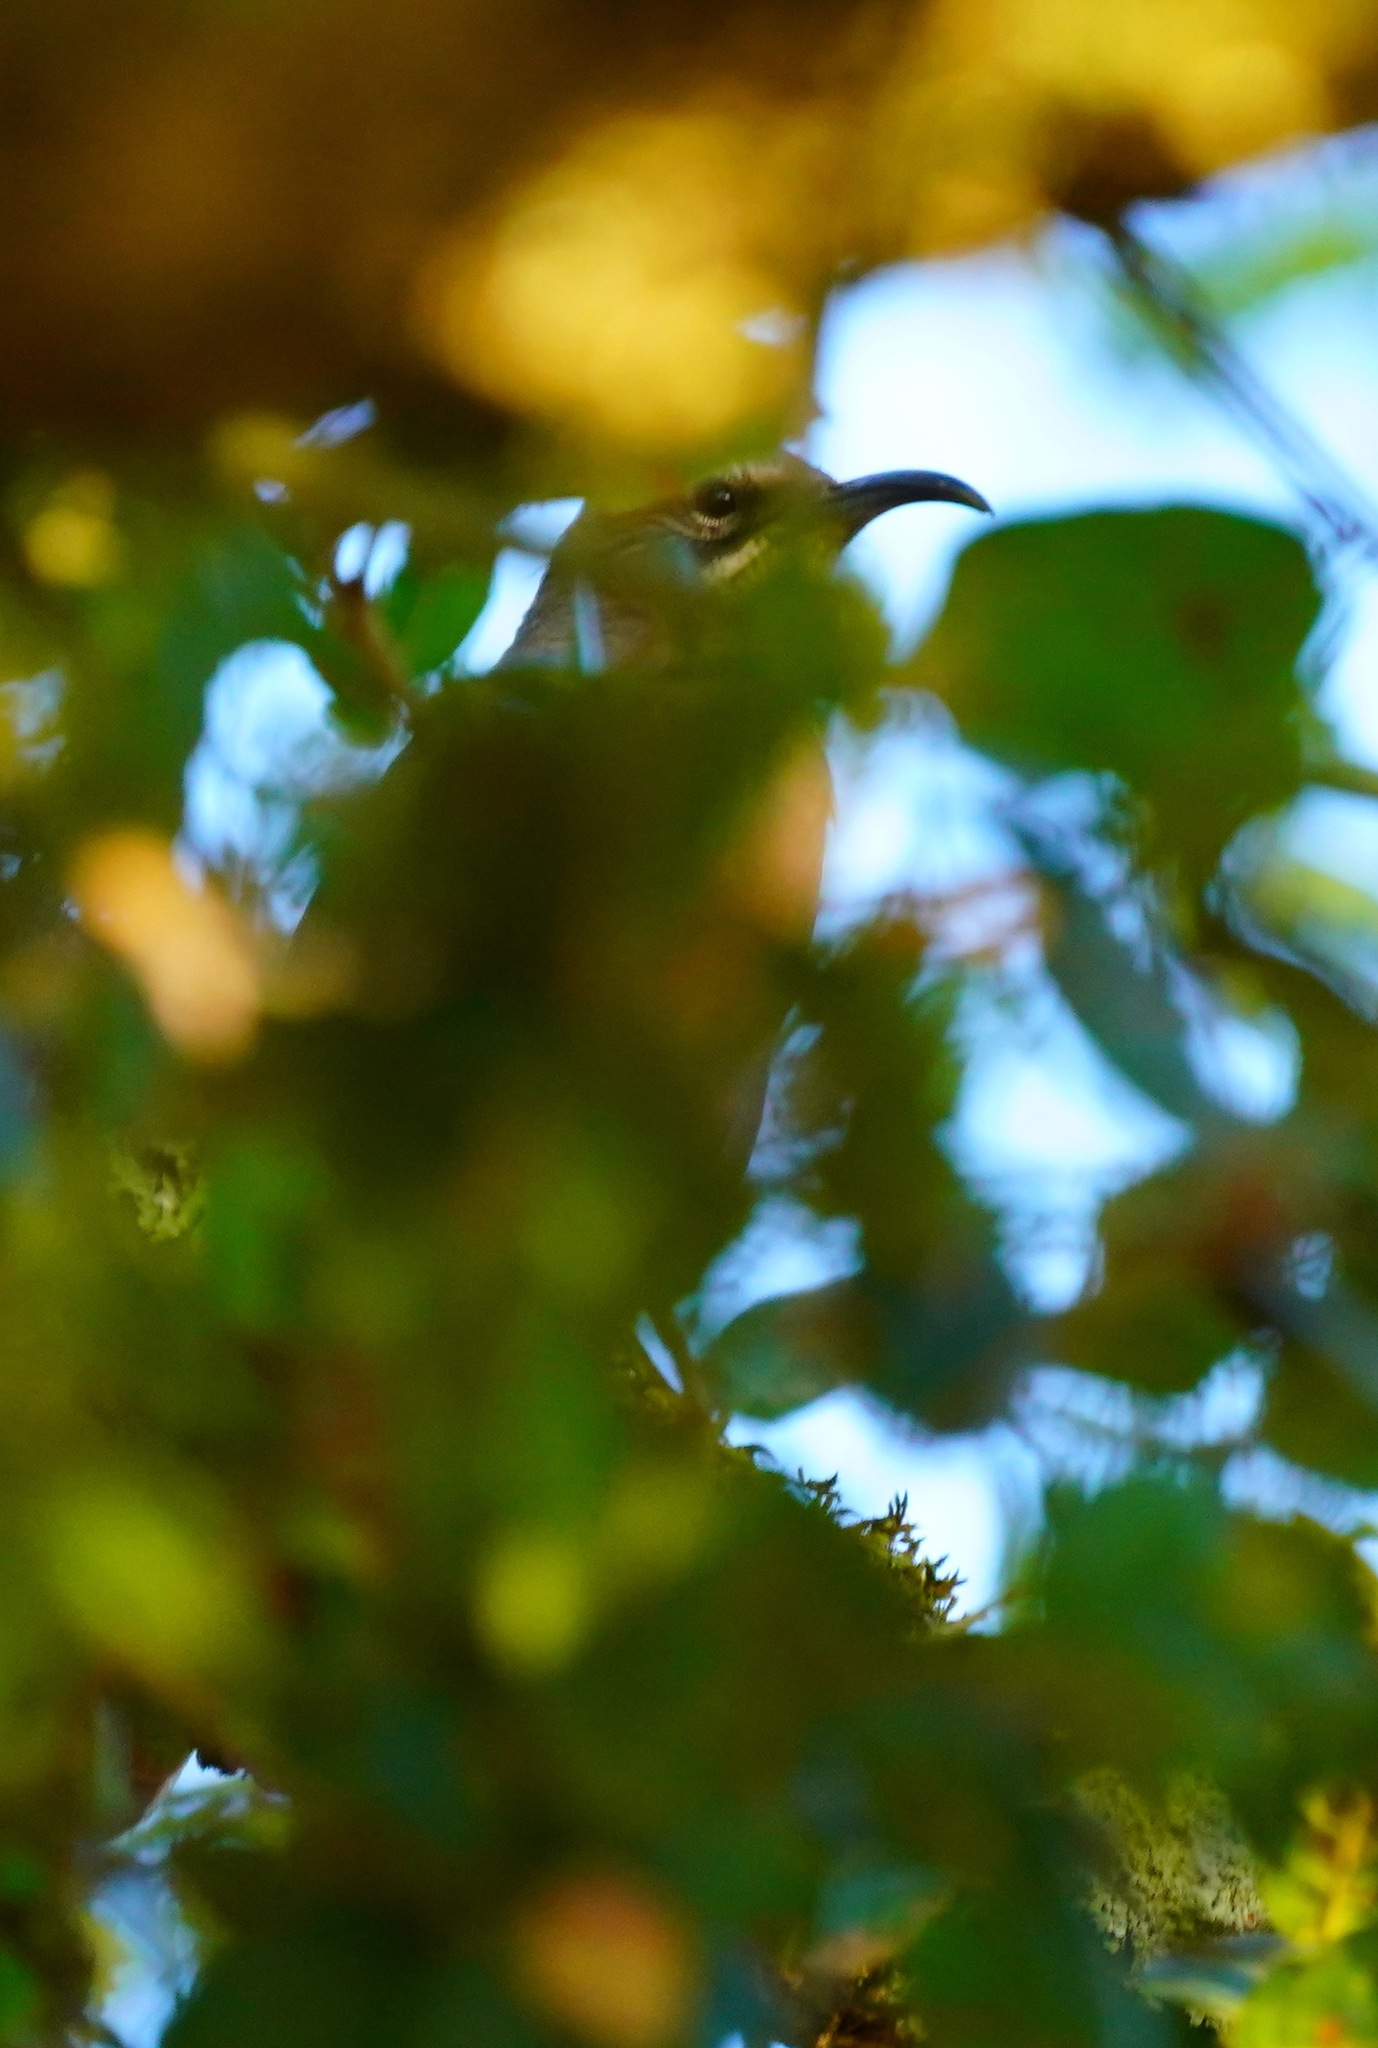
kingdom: Animalia
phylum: Chordata
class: Aves
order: Passeriformes
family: Mimidae
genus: Toxostoma
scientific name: Toxostoma redivivum
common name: California thrasher
